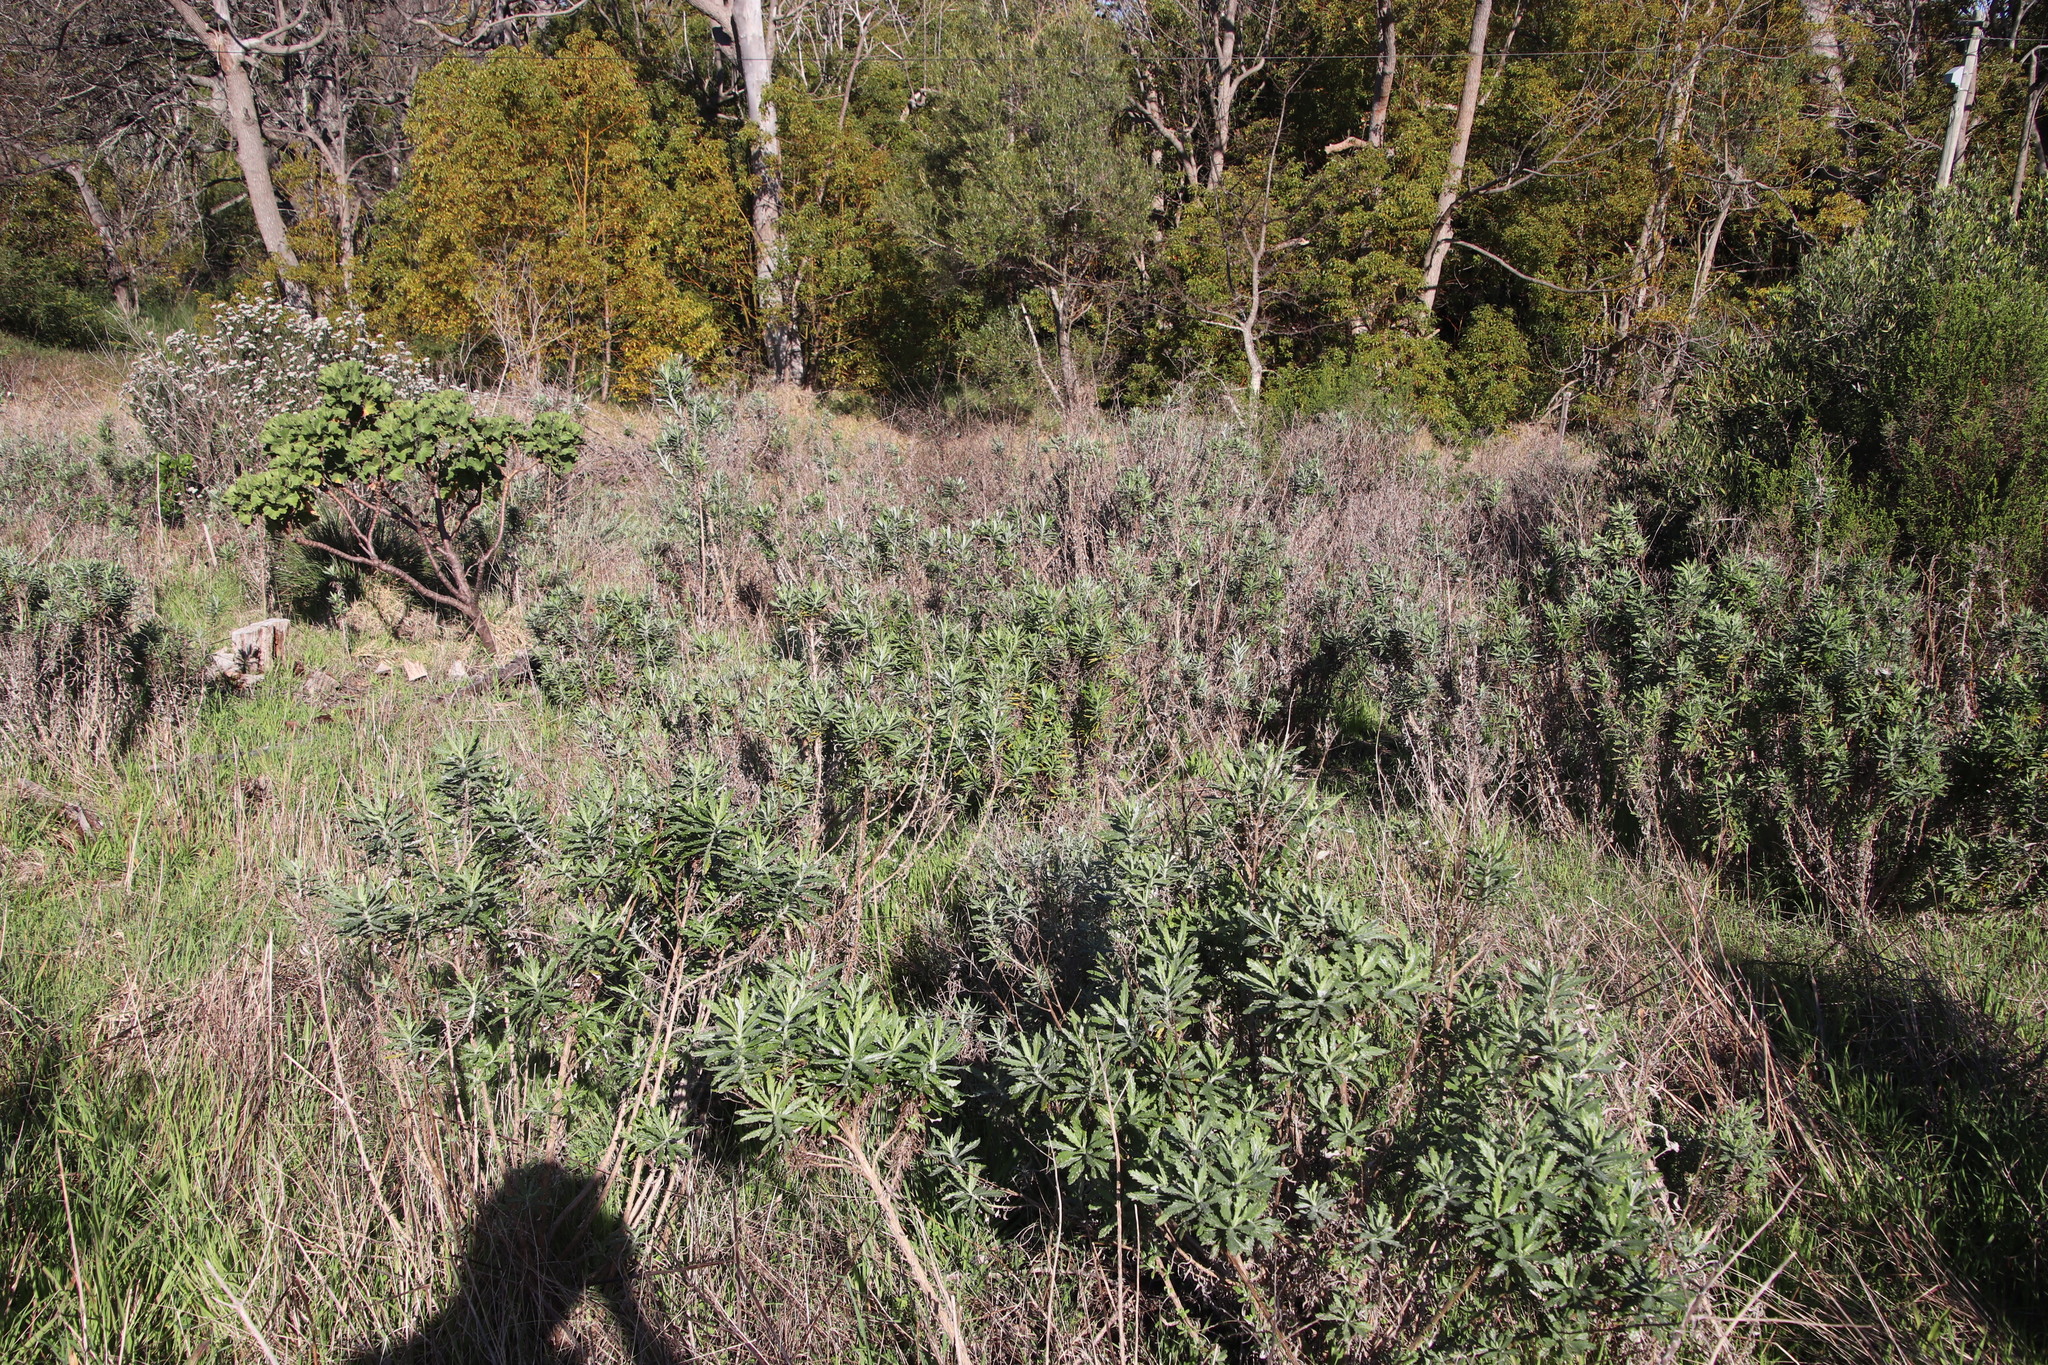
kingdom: Plantae
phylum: Tracheophyta
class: Magnoliopsida
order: Asterales
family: Asteraceae
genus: Senecio
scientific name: Senecio pterophorus
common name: Shoddy ragwort
